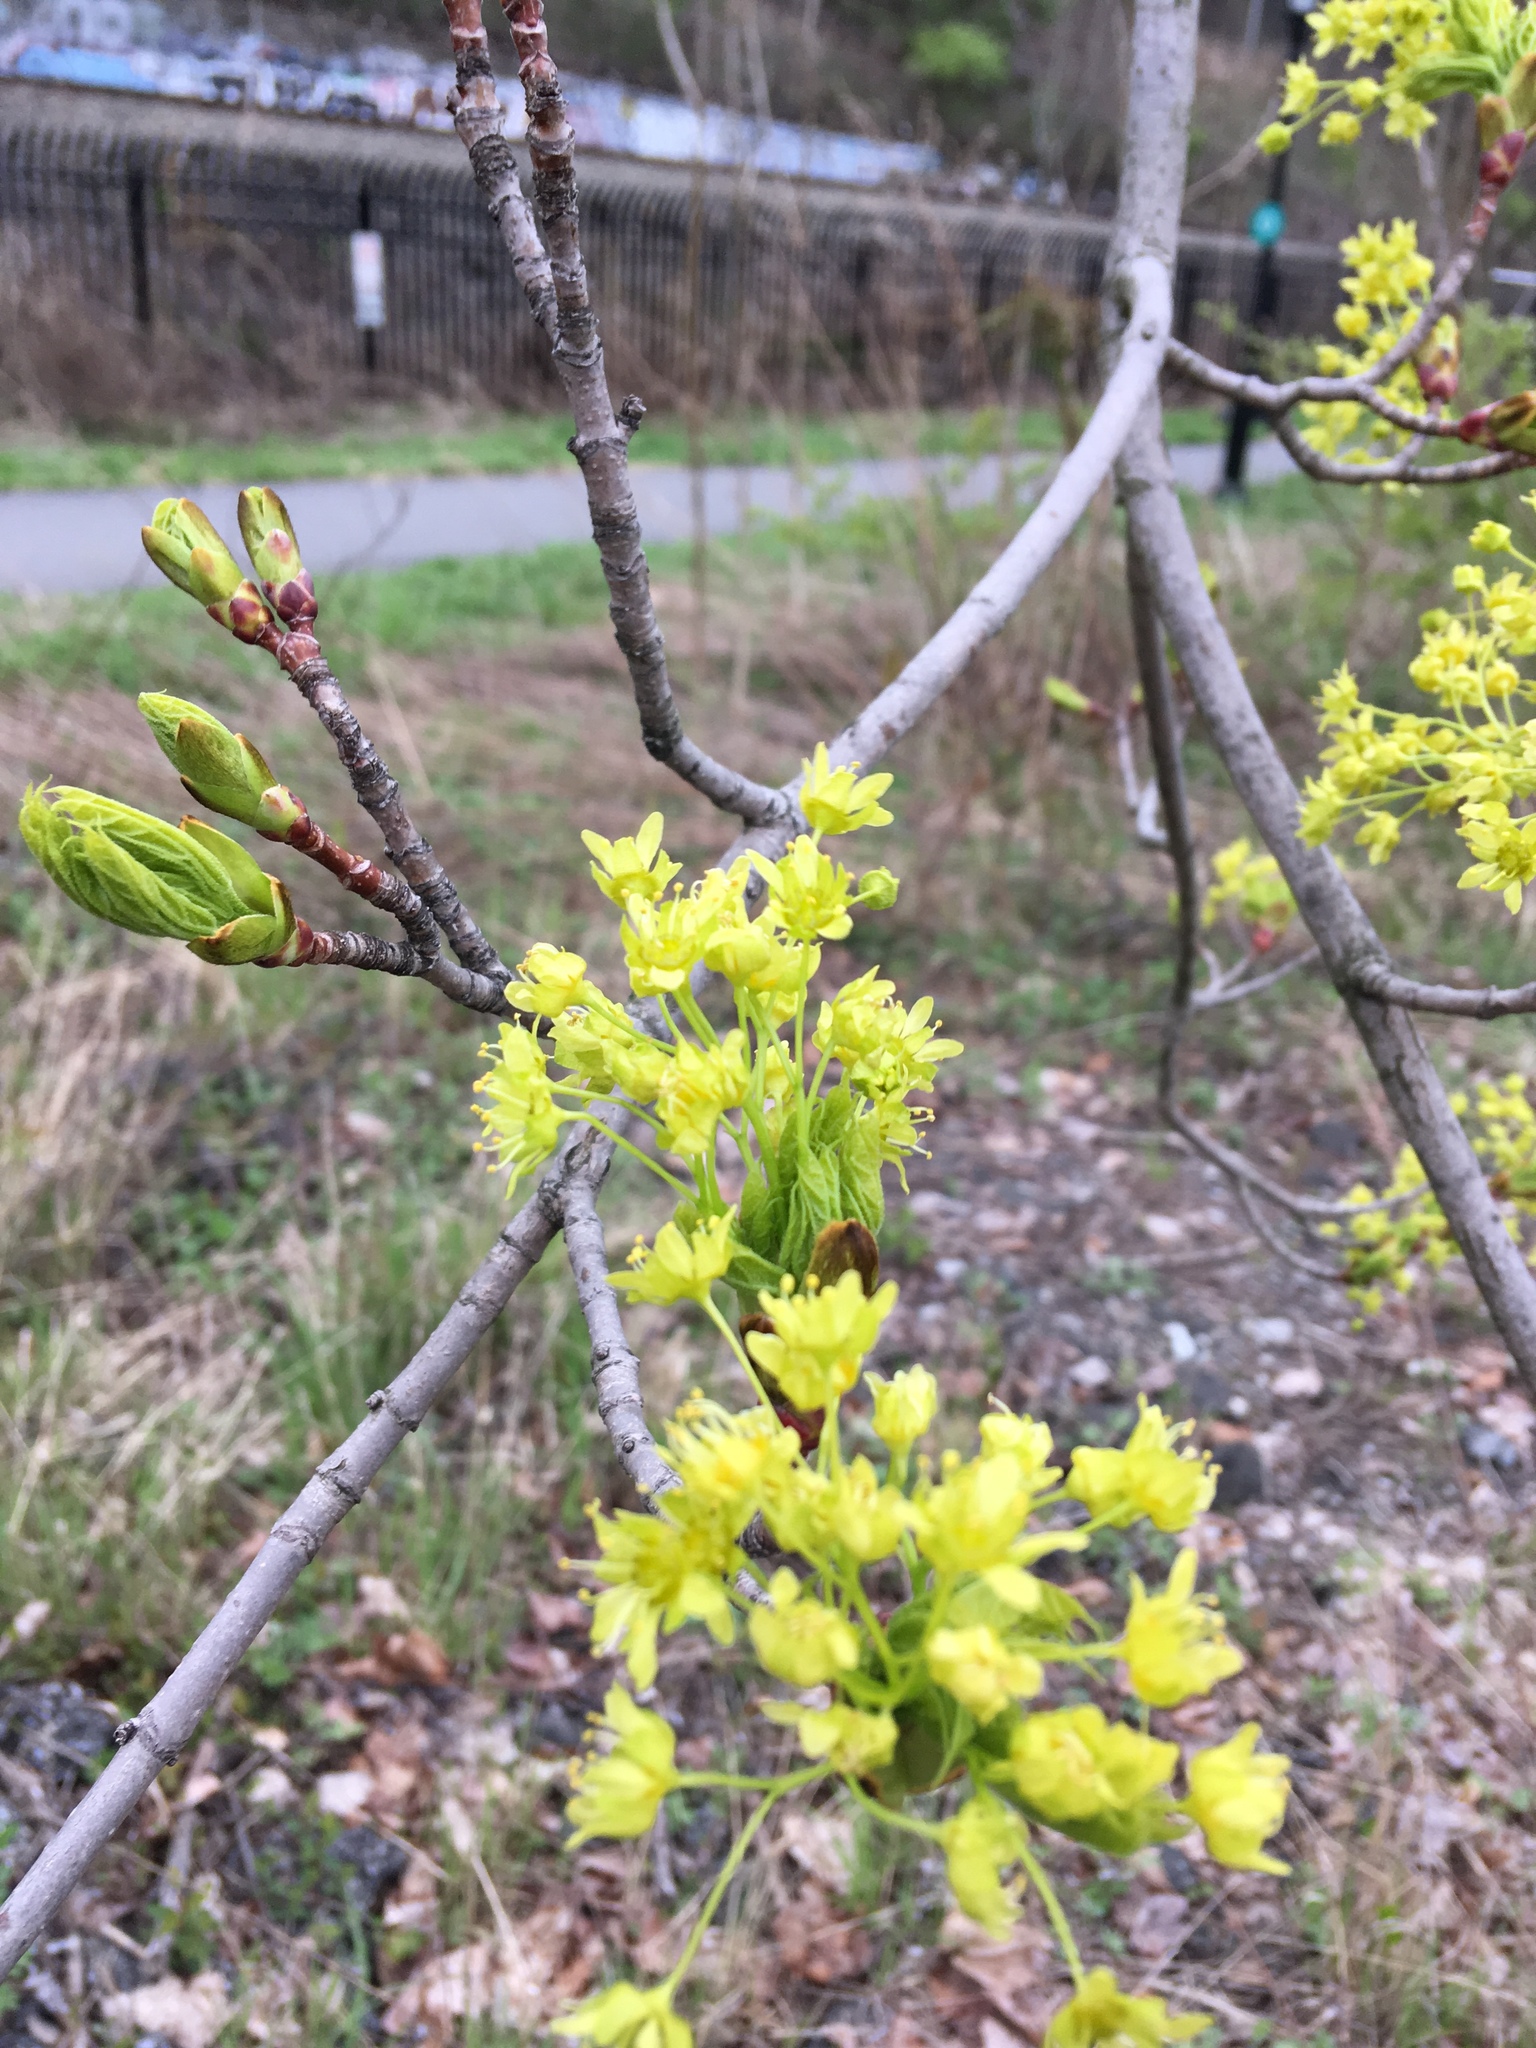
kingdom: Plantae
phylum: Tracheophyta
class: Magnoliopsida
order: Sapindales
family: Sapindaceae
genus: Acer
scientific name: Acer platanoides
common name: Norway maple
